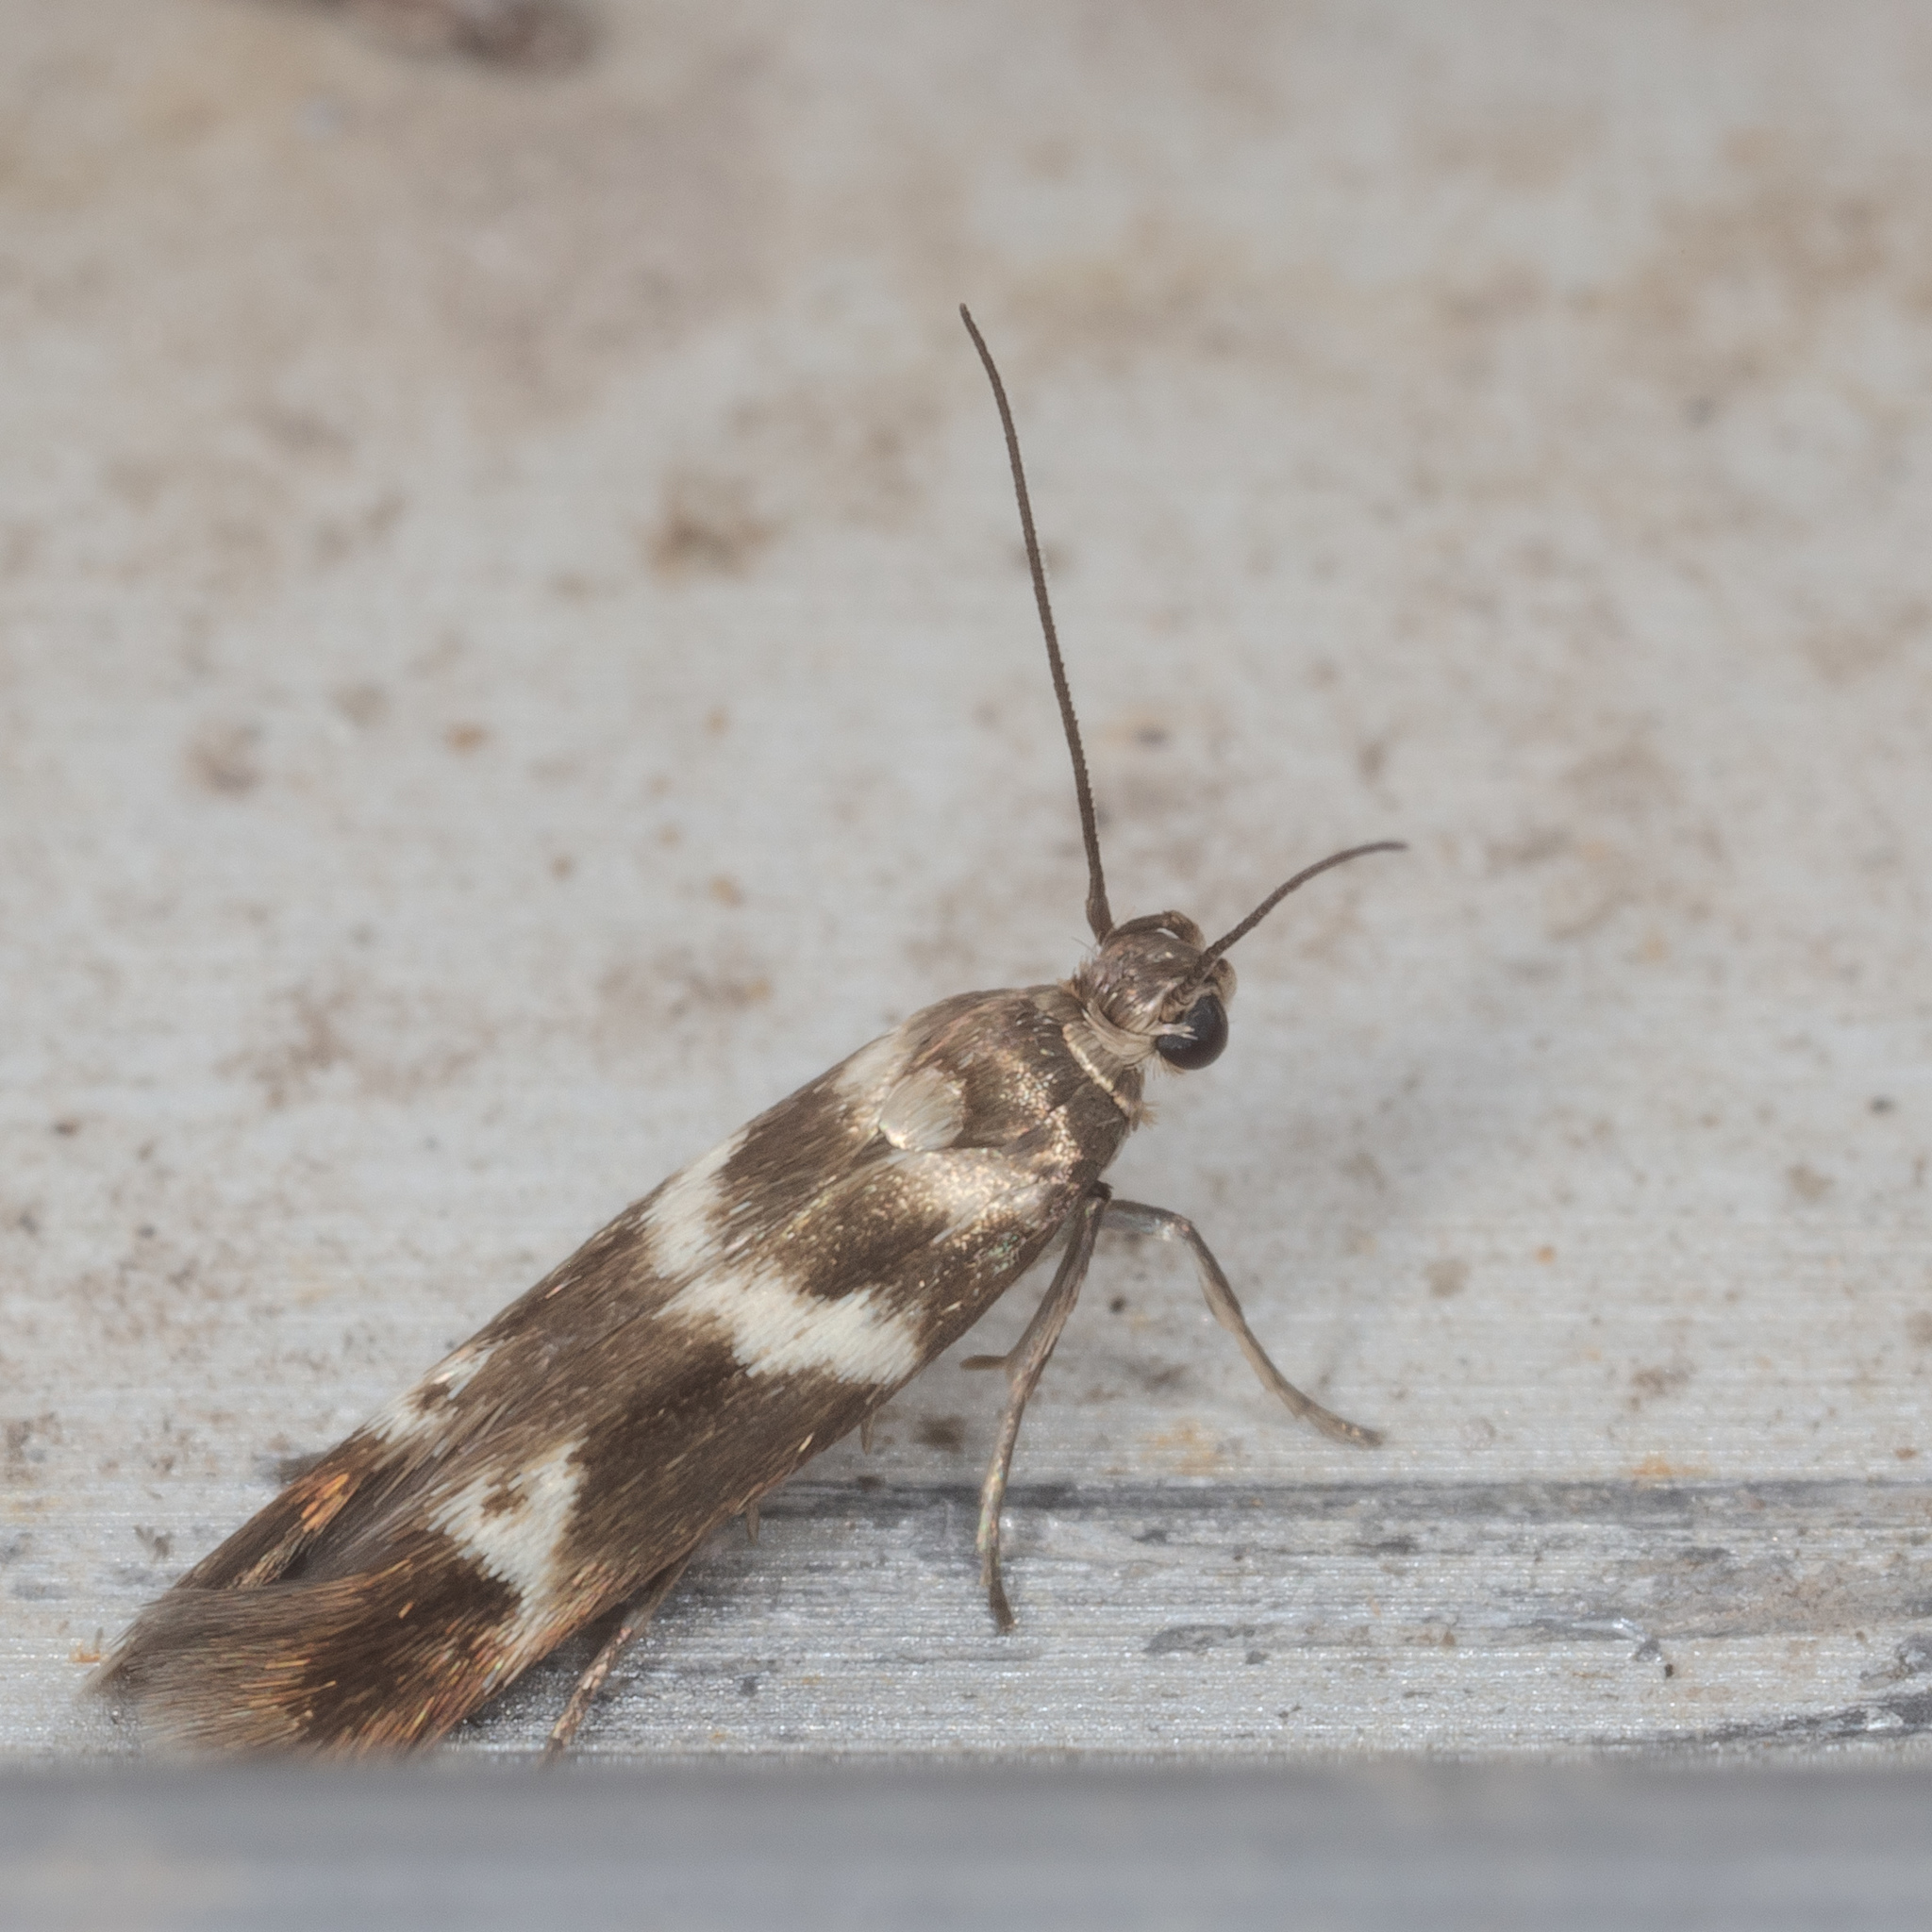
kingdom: Animalia
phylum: Arthropoda
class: Insecta
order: Lepidoptera
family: Scythrididae
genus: Scythris
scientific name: Scythris trivinctella
